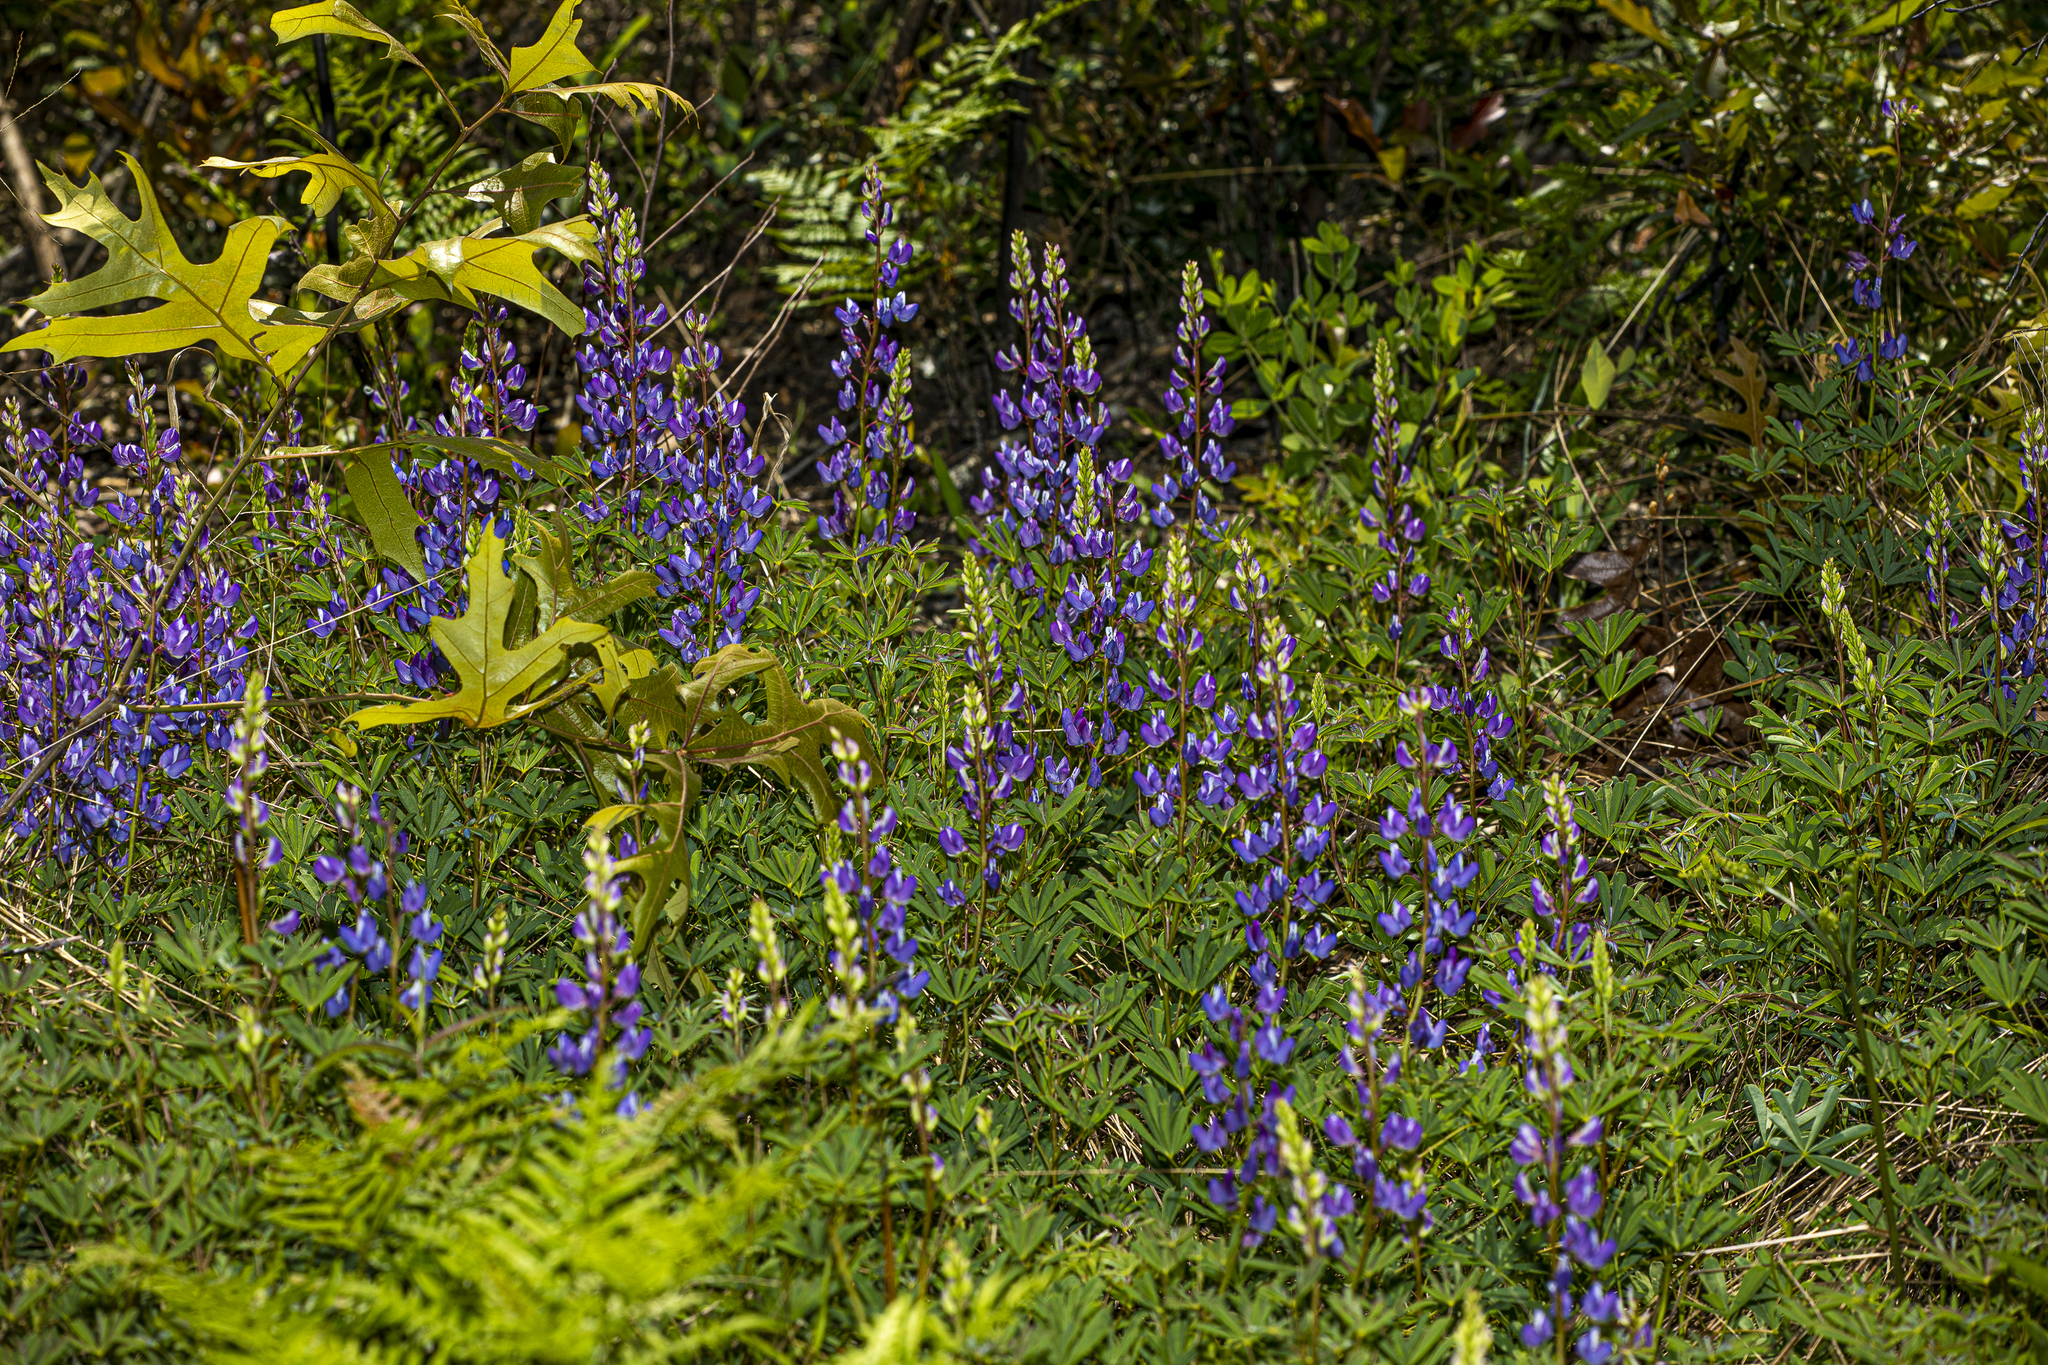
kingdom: Plantae
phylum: Tracheophyta
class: Magnoliopsida
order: Fabales
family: Fabaceae
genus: Lupinus
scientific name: Lupinus perennis
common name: Sundial lupine
